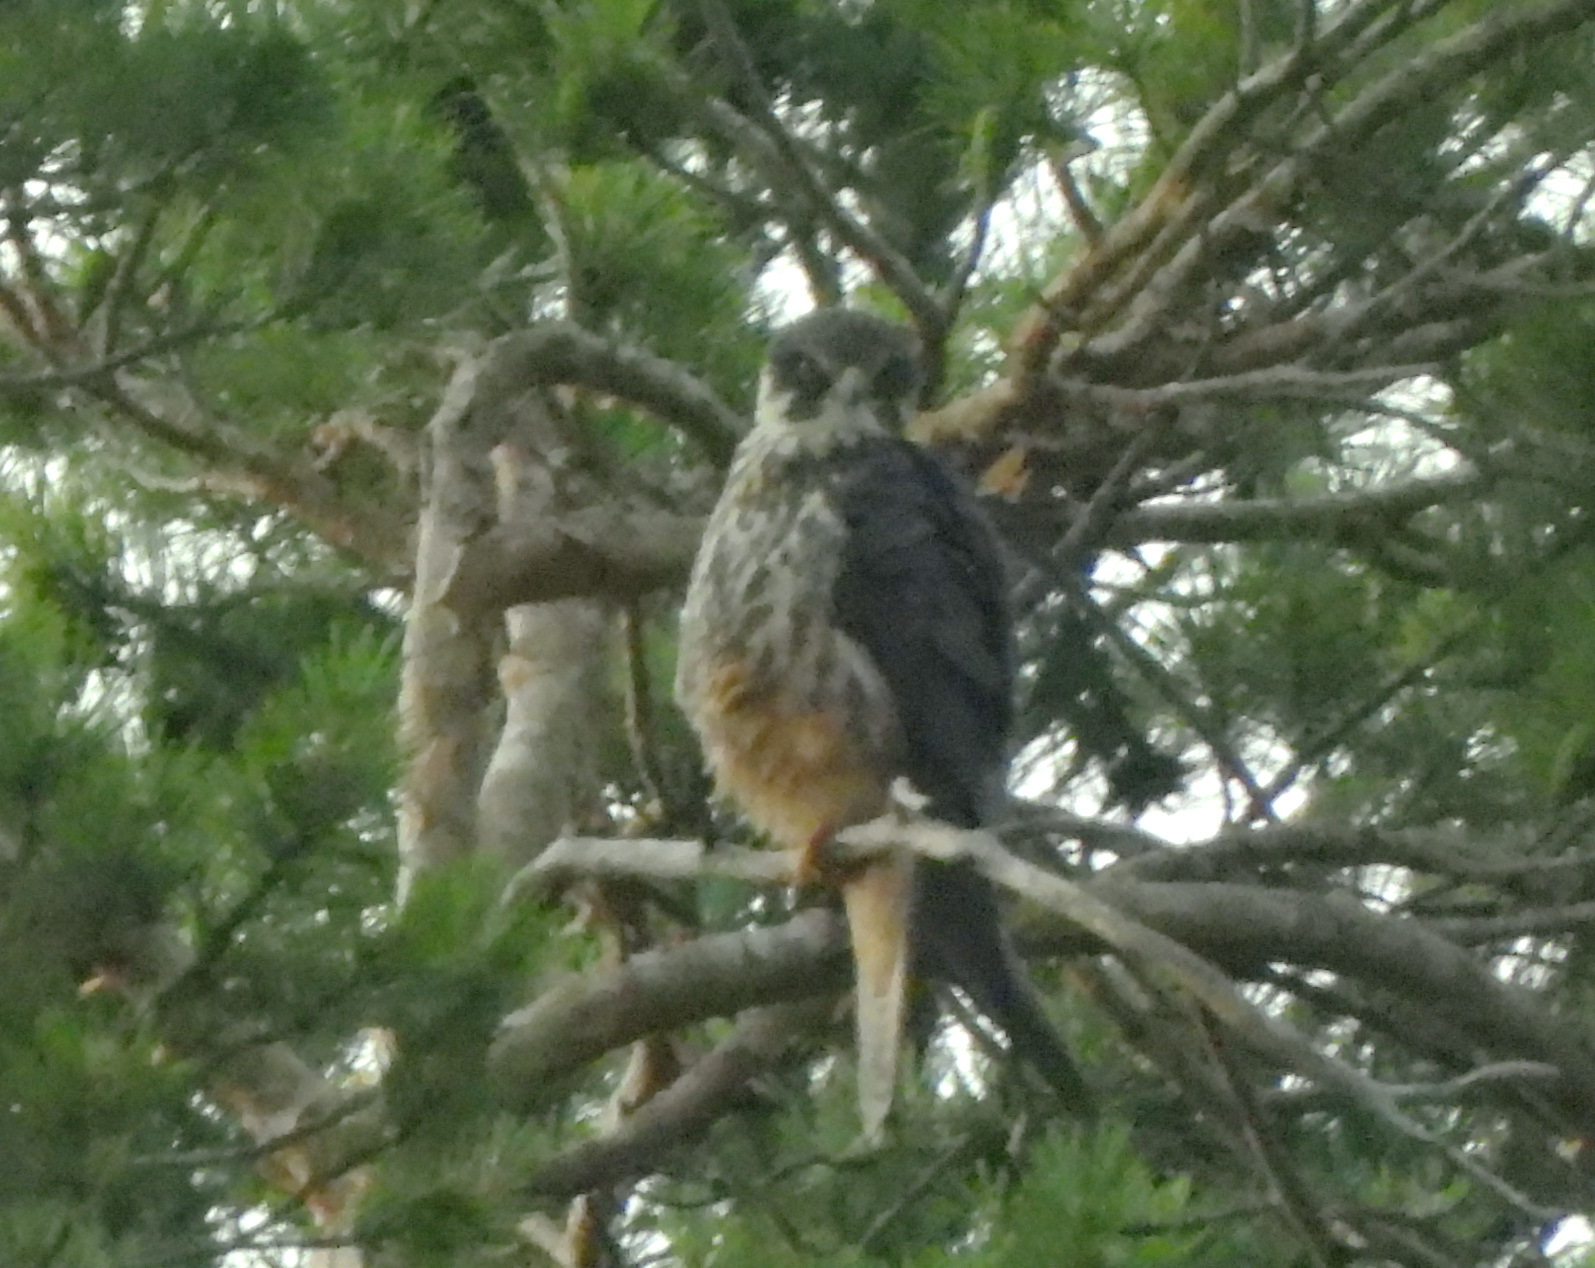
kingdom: Animalia
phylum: Chordata
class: Aves
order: Falconiformes
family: Falconidae
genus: Falco
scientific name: Falco subbuteo
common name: Eurasian hobby
